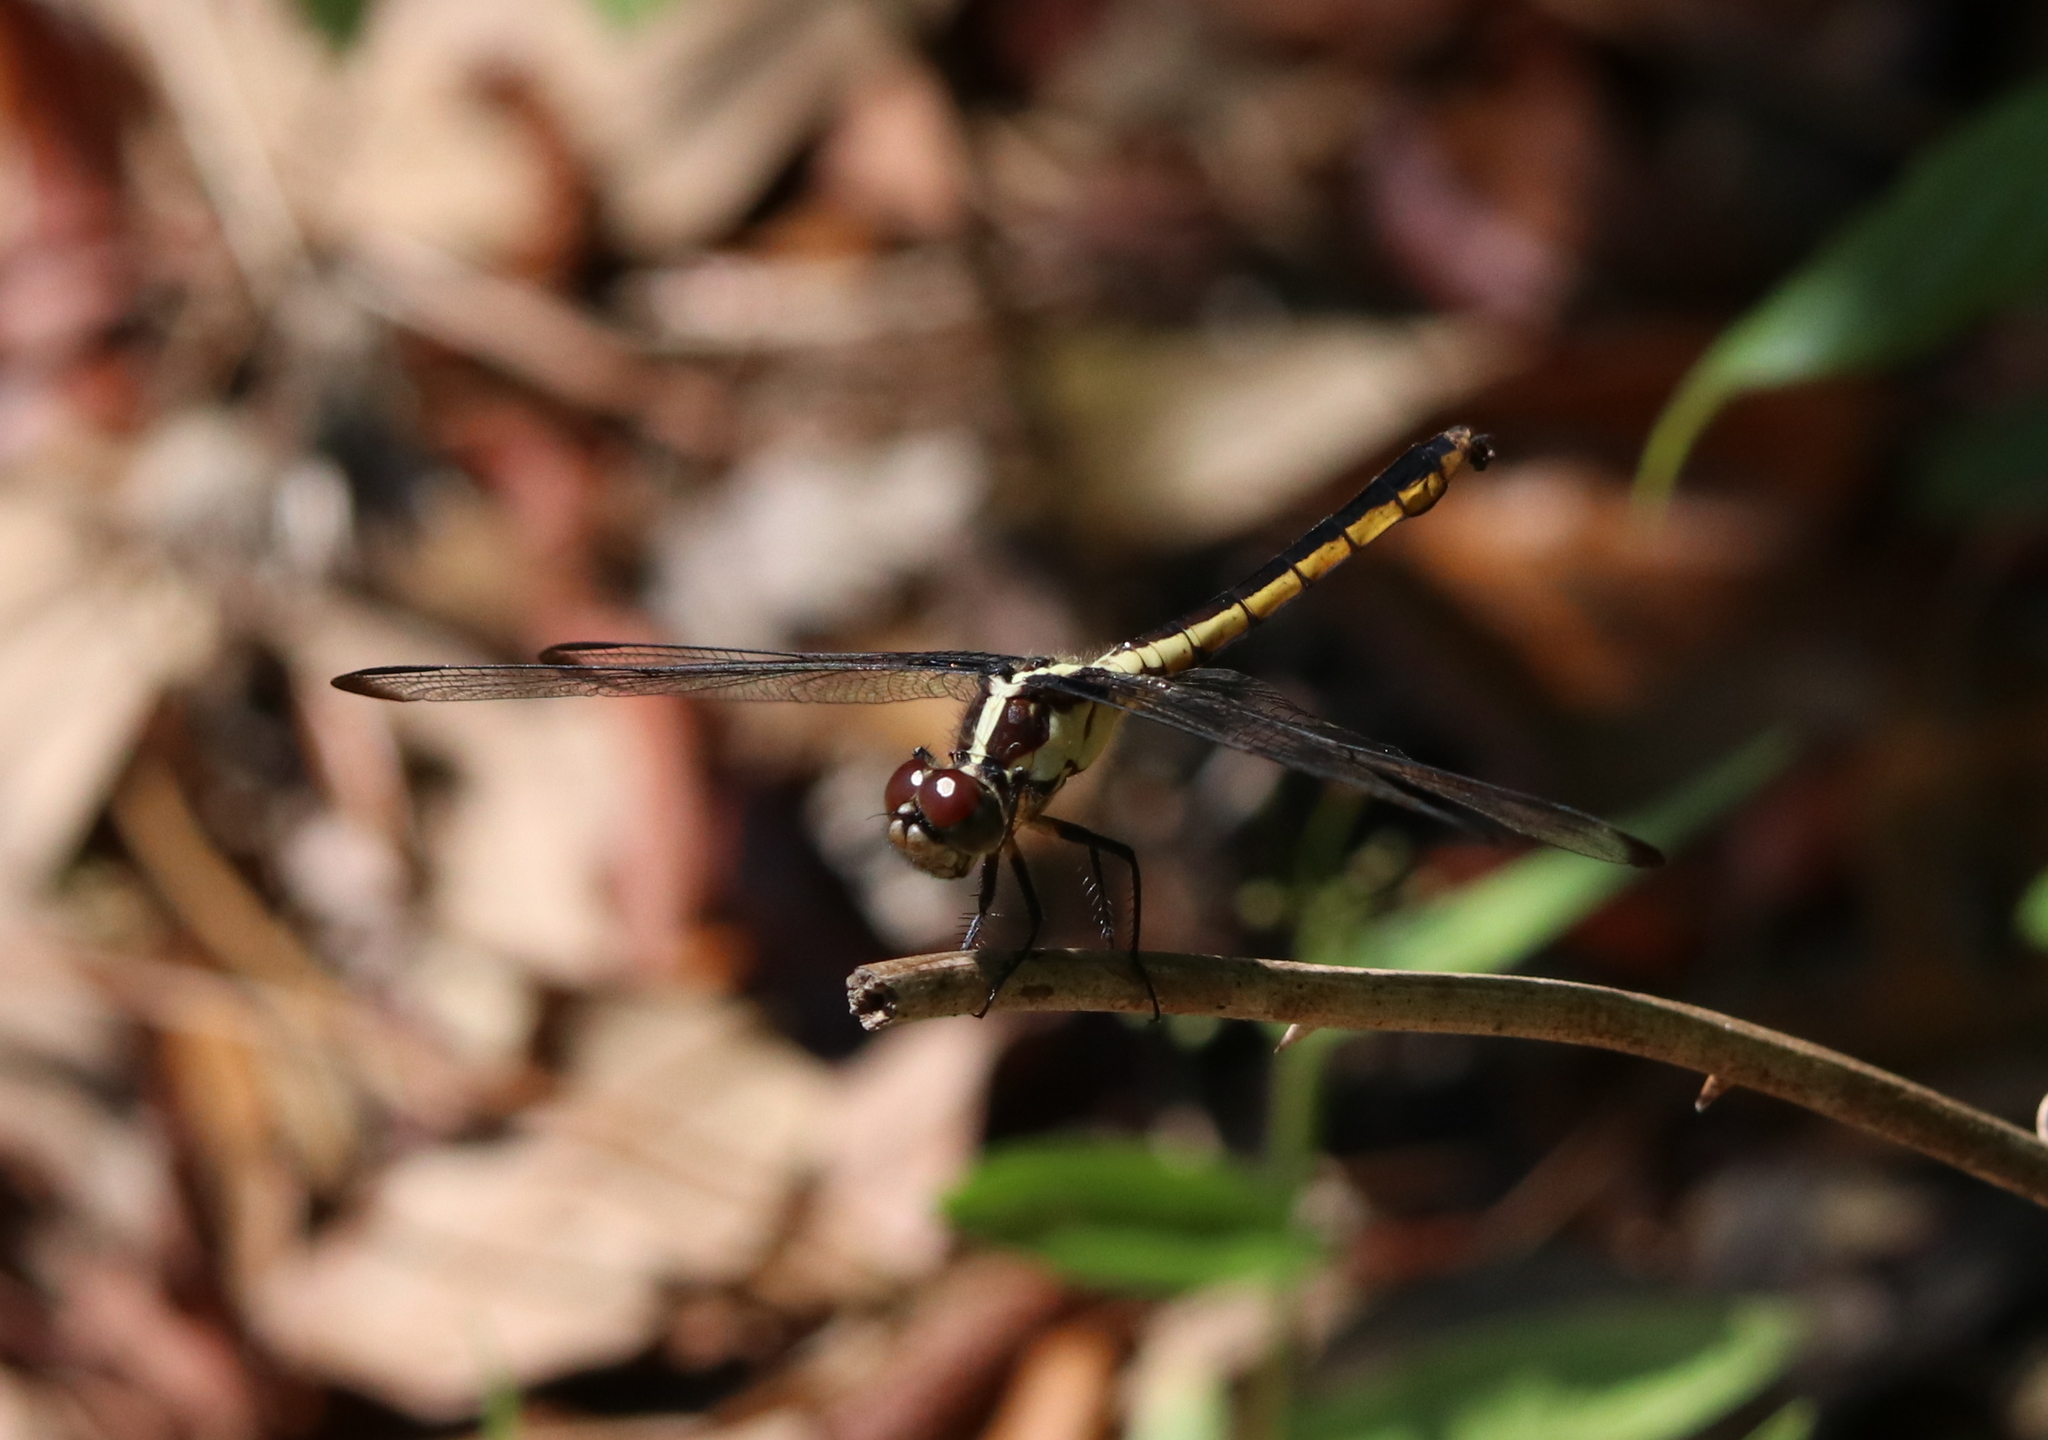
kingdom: Animalia
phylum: Arthropoda
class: Insecta
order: Odonata
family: Libellulidae
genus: Libellula
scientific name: Libellula incesta
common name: Slaty skimmer
